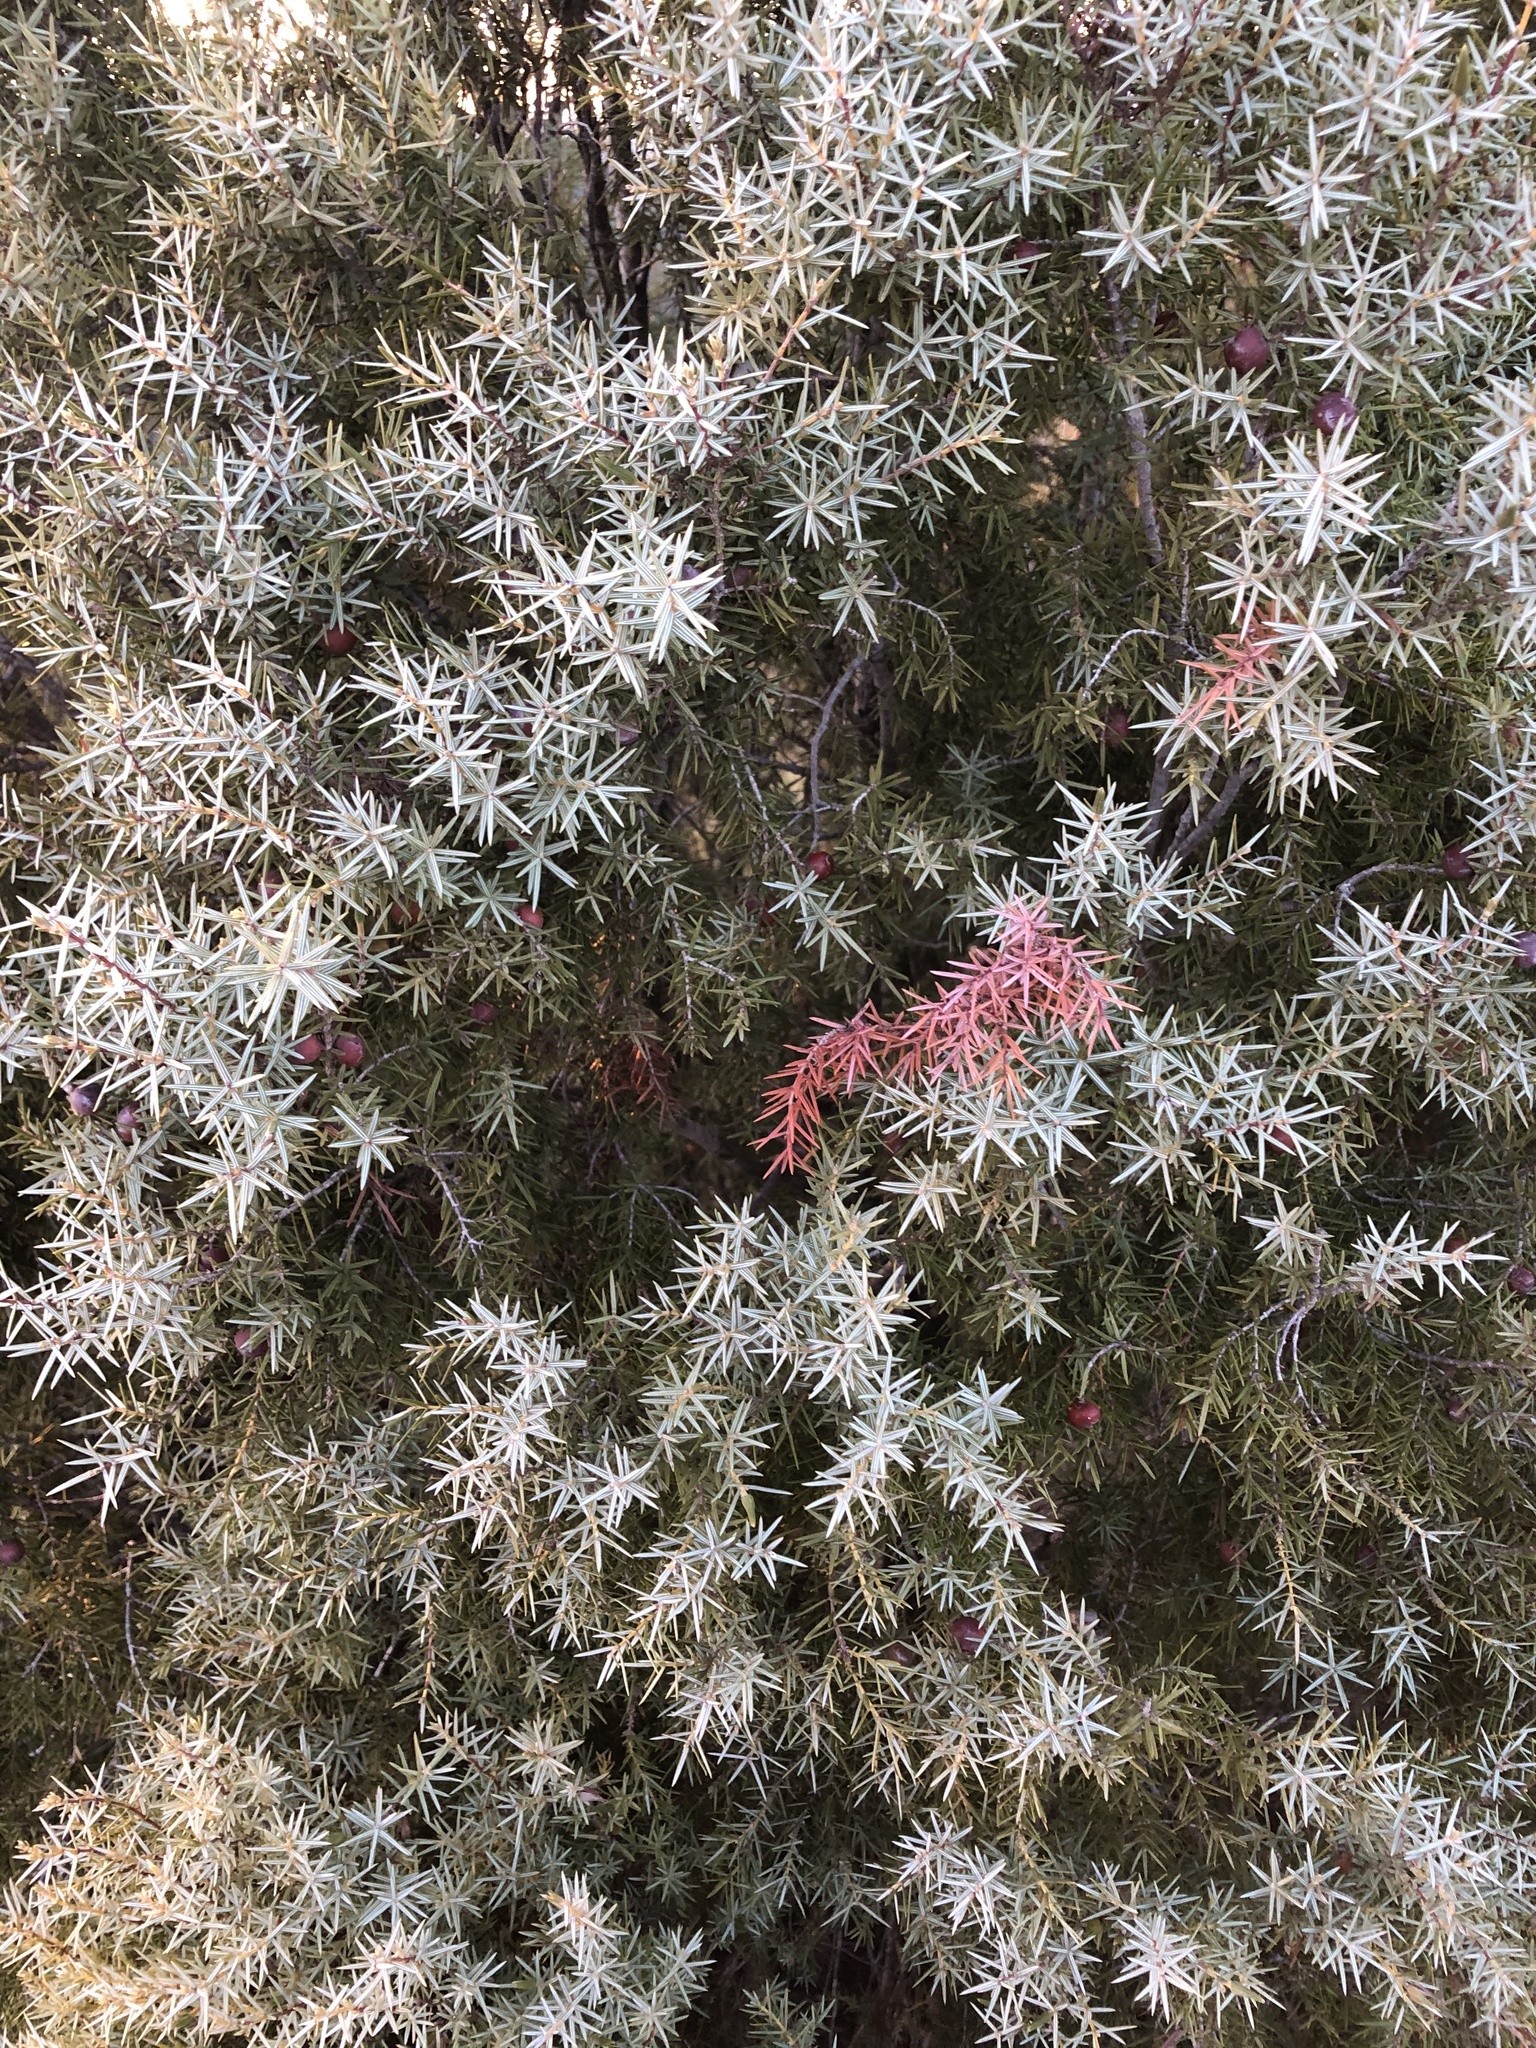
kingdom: Plantae
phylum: Tracheophyta
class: Pinopsida
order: Pinales
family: Cupressaceae
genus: Juniperus
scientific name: Juniperus oxycedrus
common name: Prickly juniper
